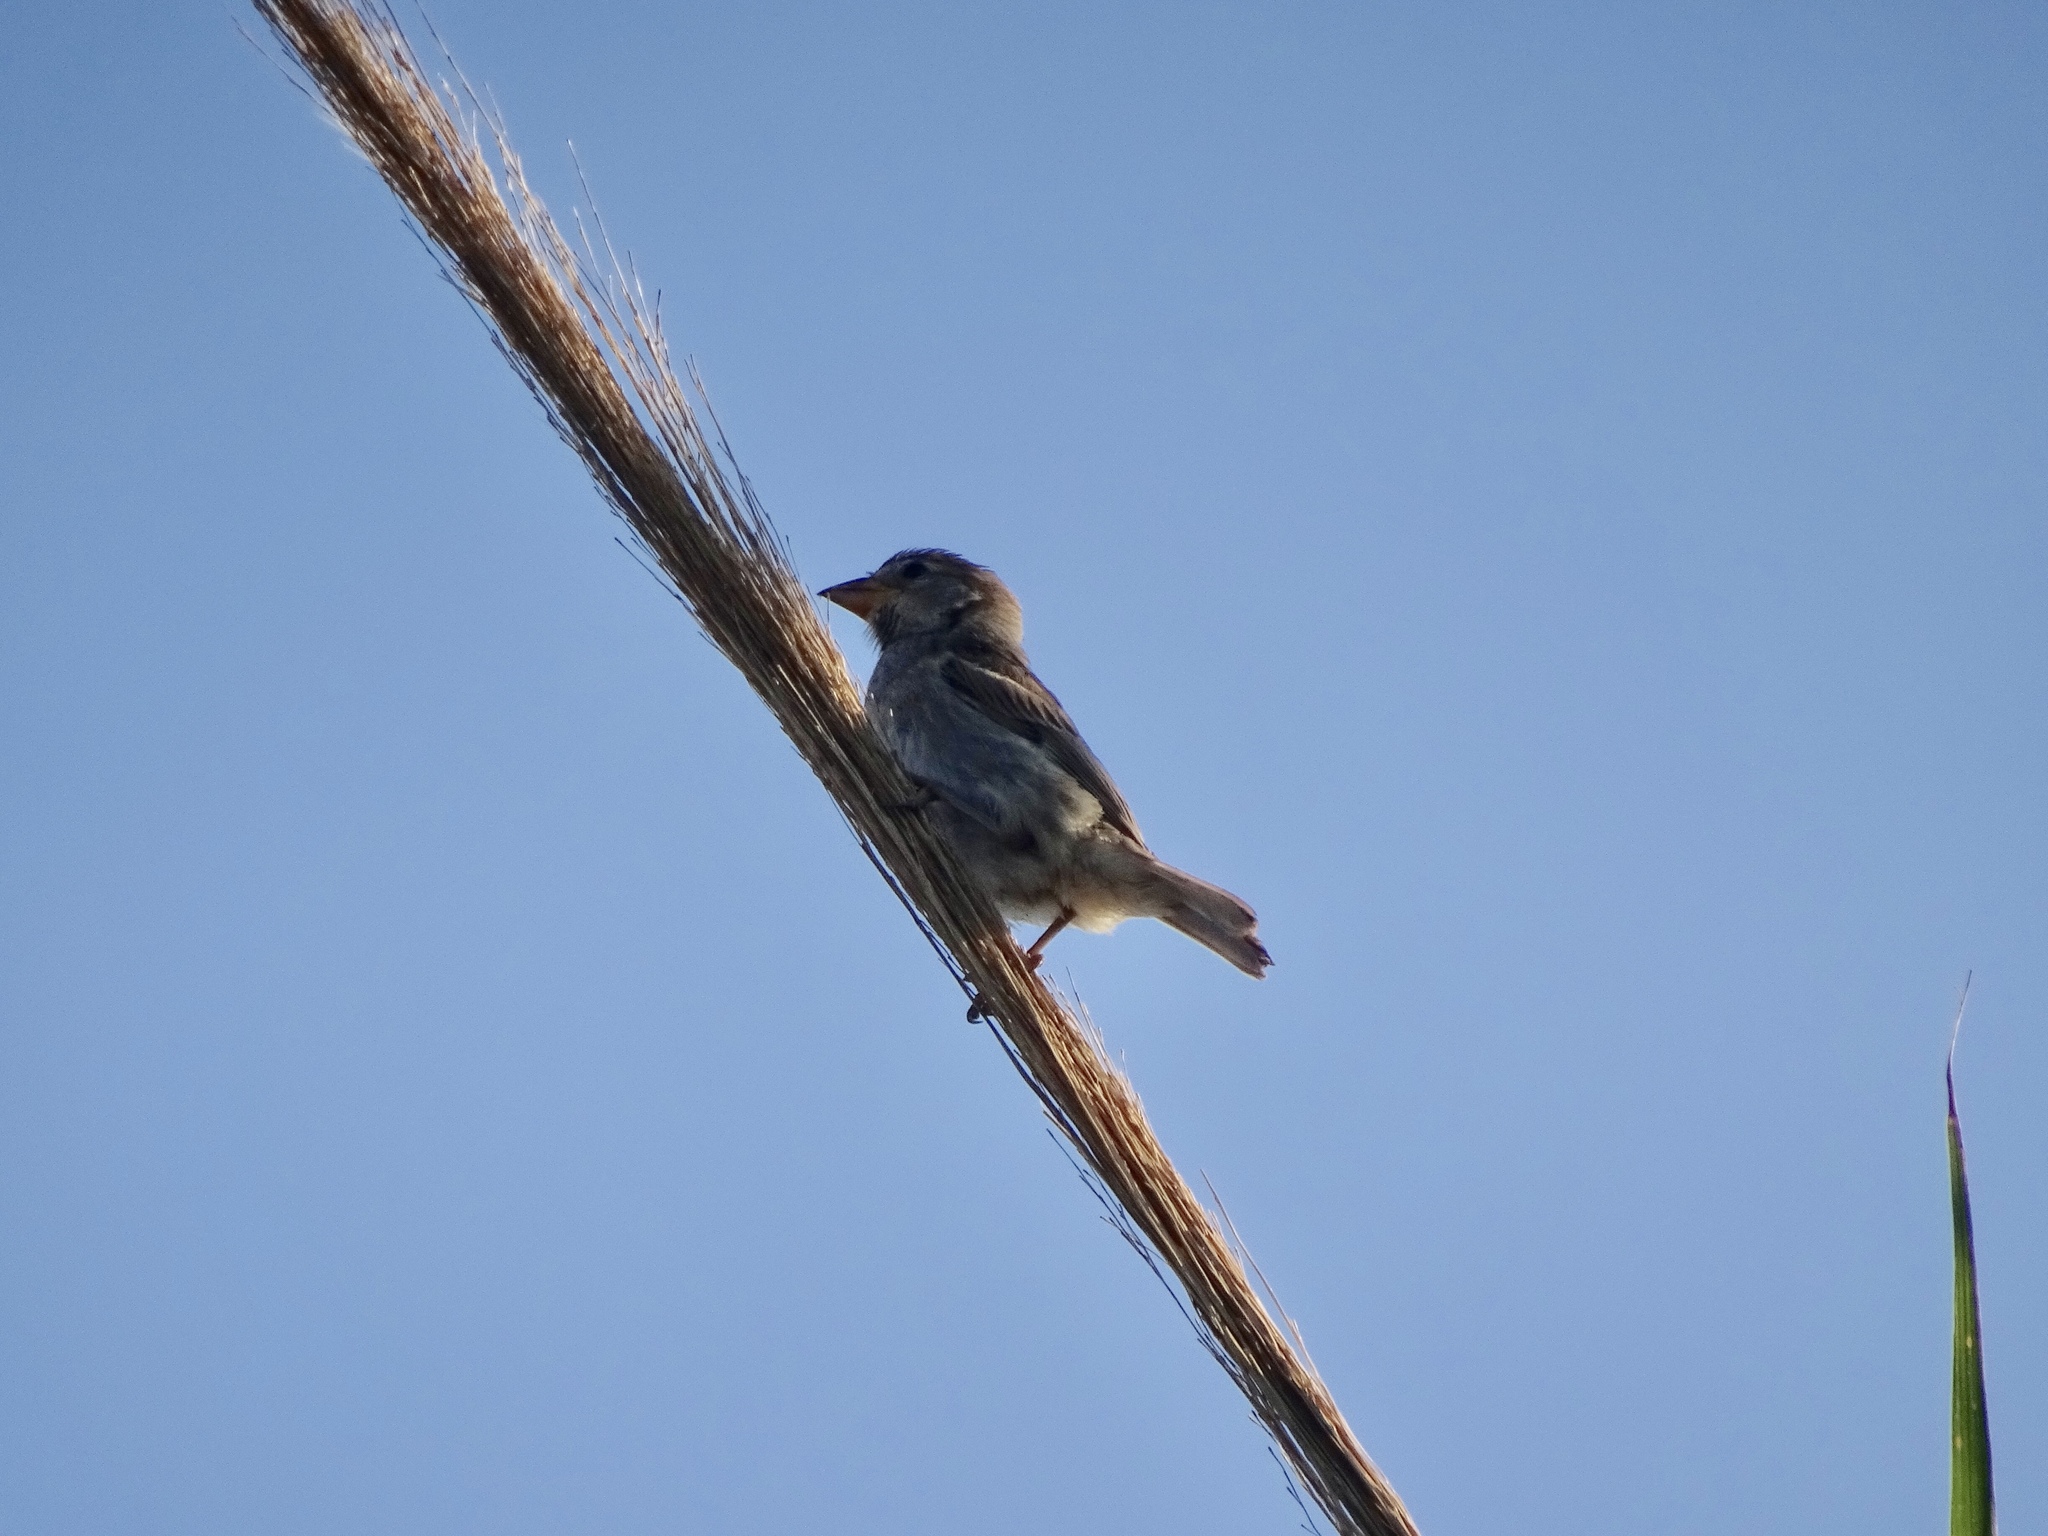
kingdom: Animalia
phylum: Chordata
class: Aves
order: Passeriformes
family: Passeridae
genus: Passer
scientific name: Passer hispaniolensis
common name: Spanish sparrow
